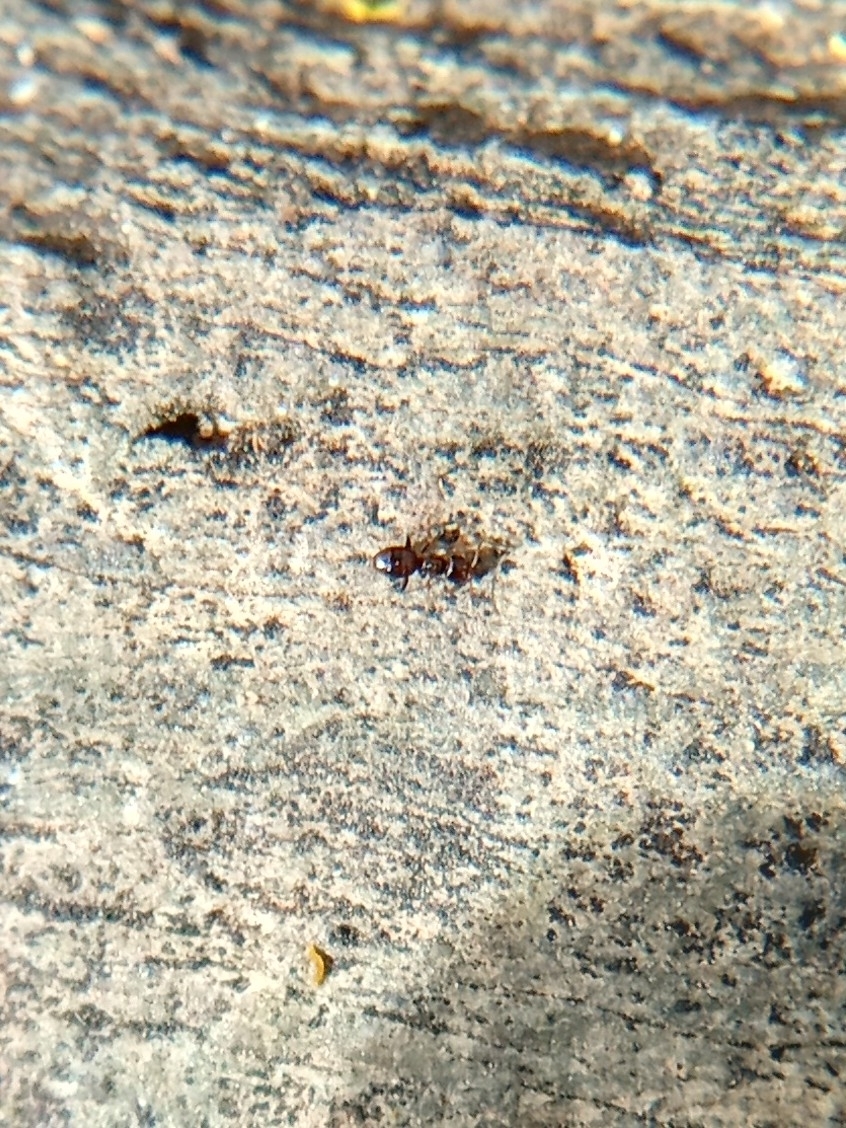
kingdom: Animalia
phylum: Arthropoda
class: Insecta
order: Hymenoptera
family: Formicidae
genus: Brachymyrmex
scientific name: Brachymyrmex patagonicus
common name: Dark rover ant
